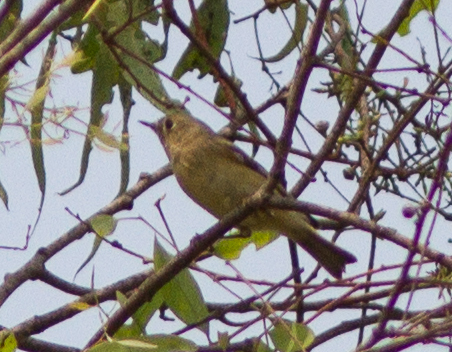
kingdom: Animalia
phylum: Chordata
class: Aves
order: Passeriformes
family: Regulidae
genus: Regulus
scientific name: Regulus calendula
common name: Ruby-crowned kinglet
